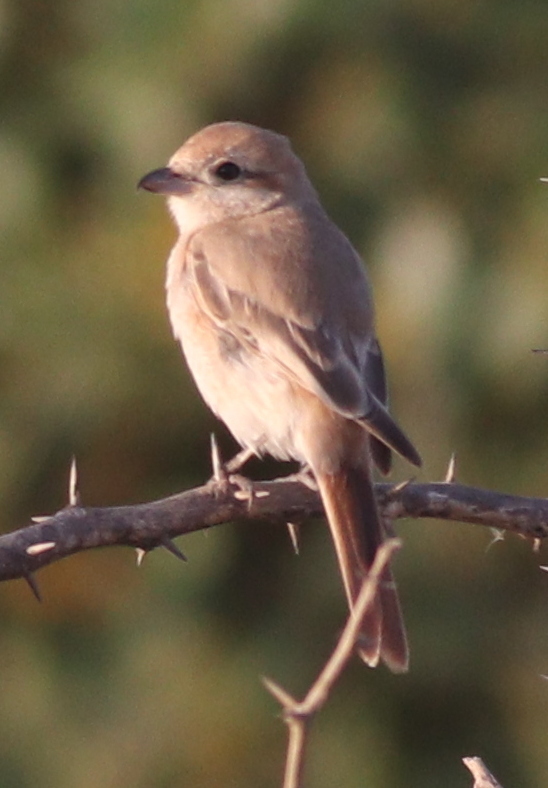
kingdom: Animalia
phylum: Chordata
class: Aves
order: Passeriformes
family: Laniidae
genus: Lanius
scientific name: Lanius isabellinus
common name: Isabelline shrike
